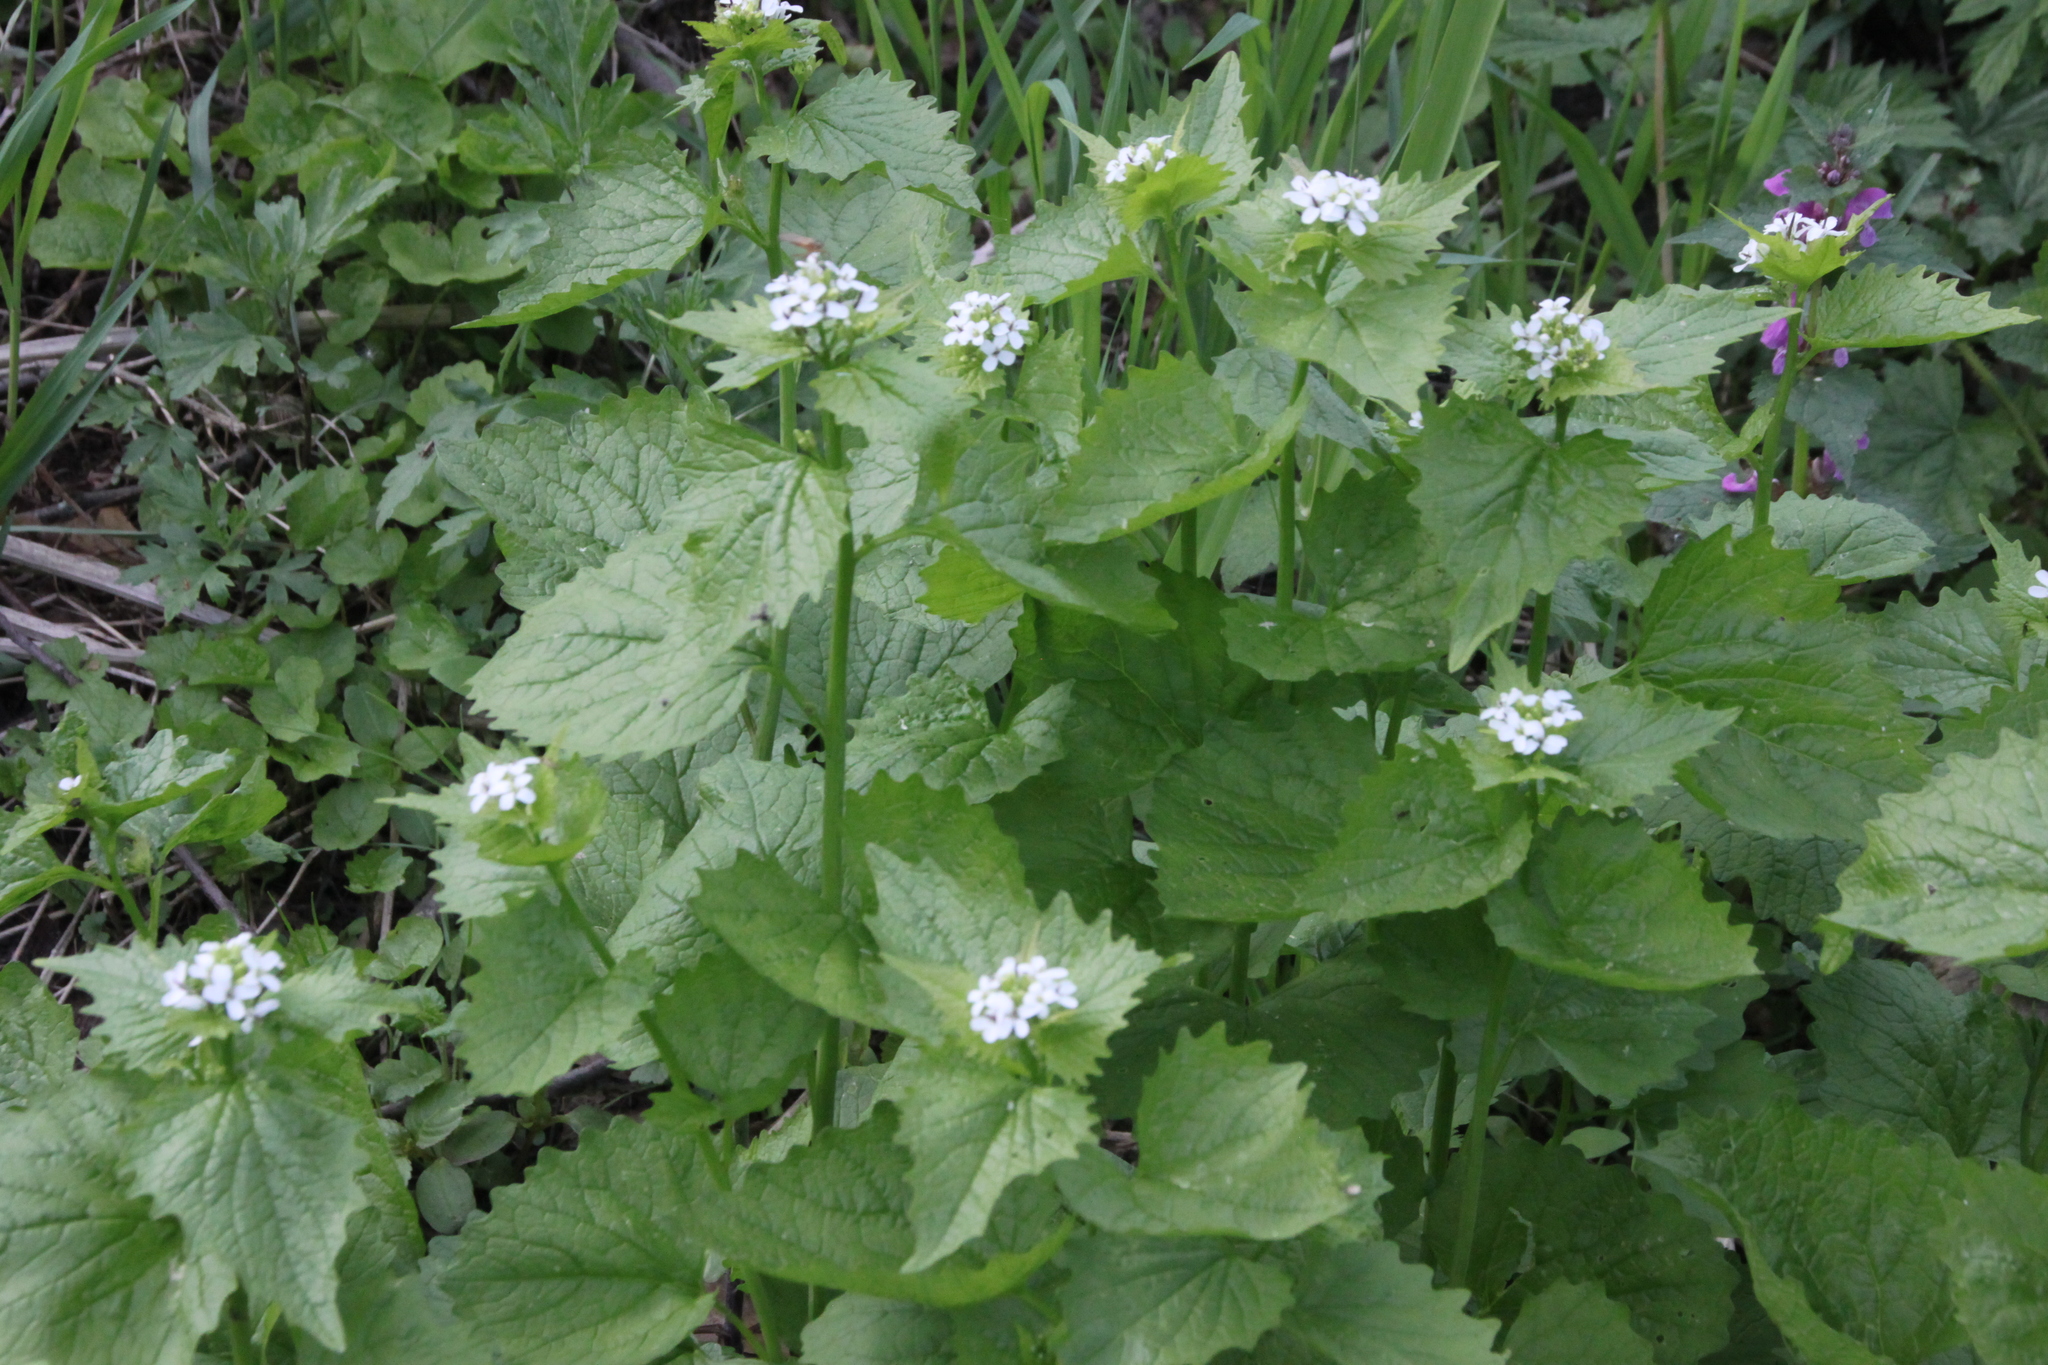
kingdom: Plantae
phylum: Tracheophyta
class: Magnoliopsida
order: Brassicales
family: Brassicaceae
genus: Alliaria
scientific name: Alliaria petiolata
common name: Garlic mustard
